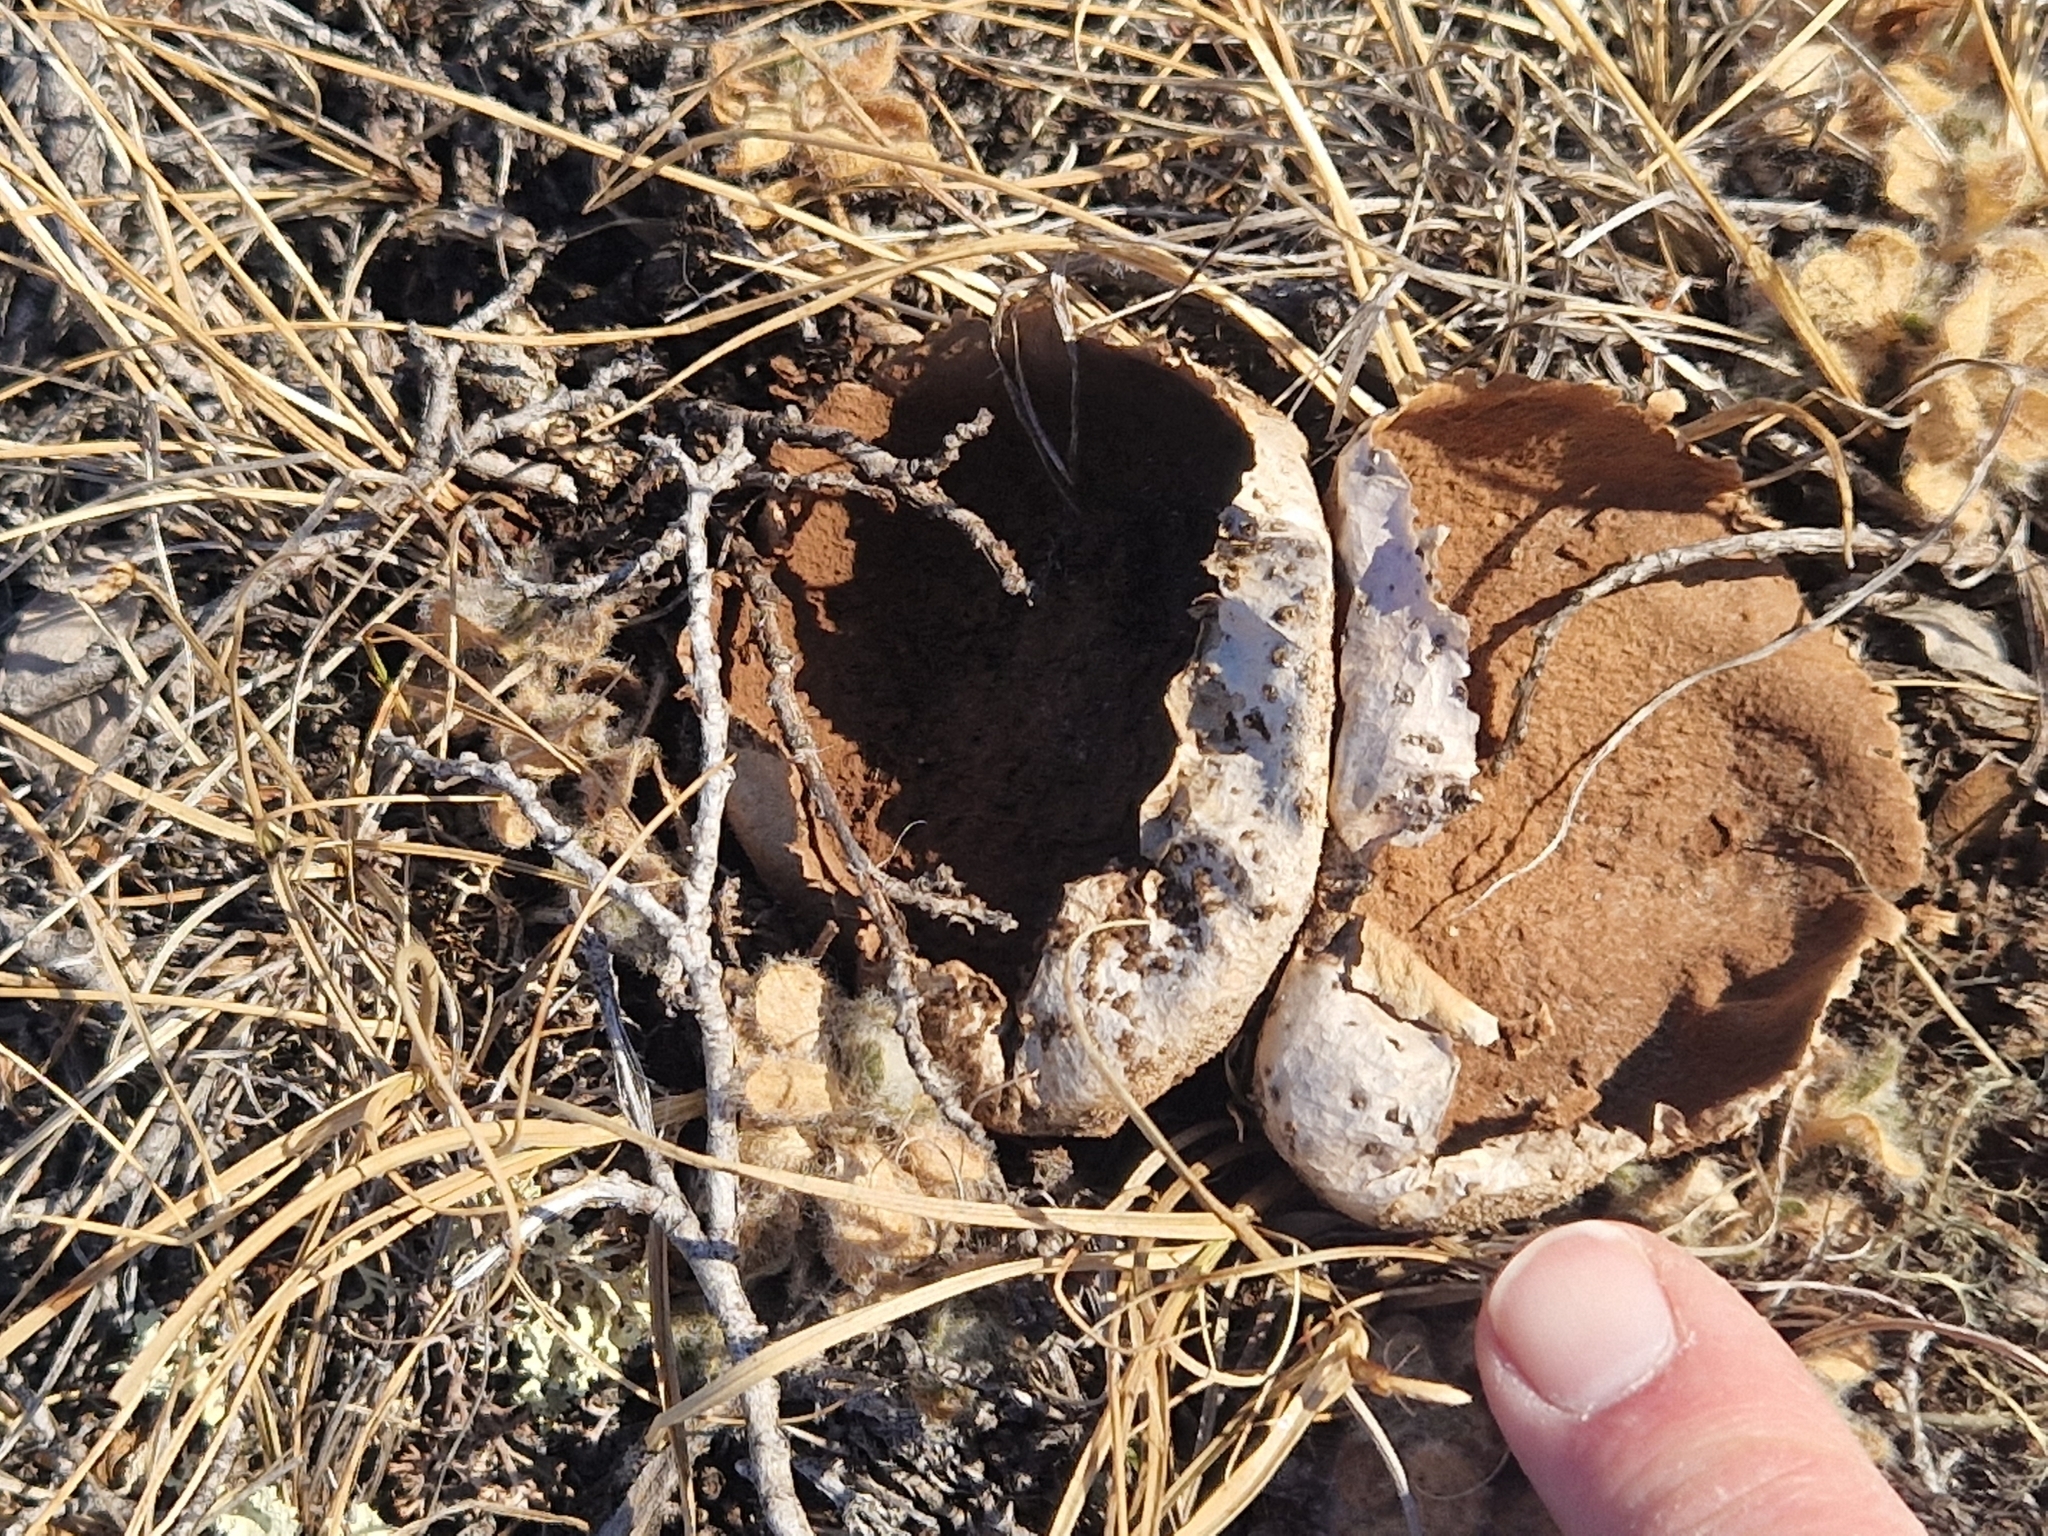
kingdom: Fungi
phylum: Basidiomycota
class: Agaricomycetes
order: Agaricales
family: Lycoperdaceae
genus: Lycoperdon
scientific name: Lycoperdon pratense
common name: Meadow puffball
